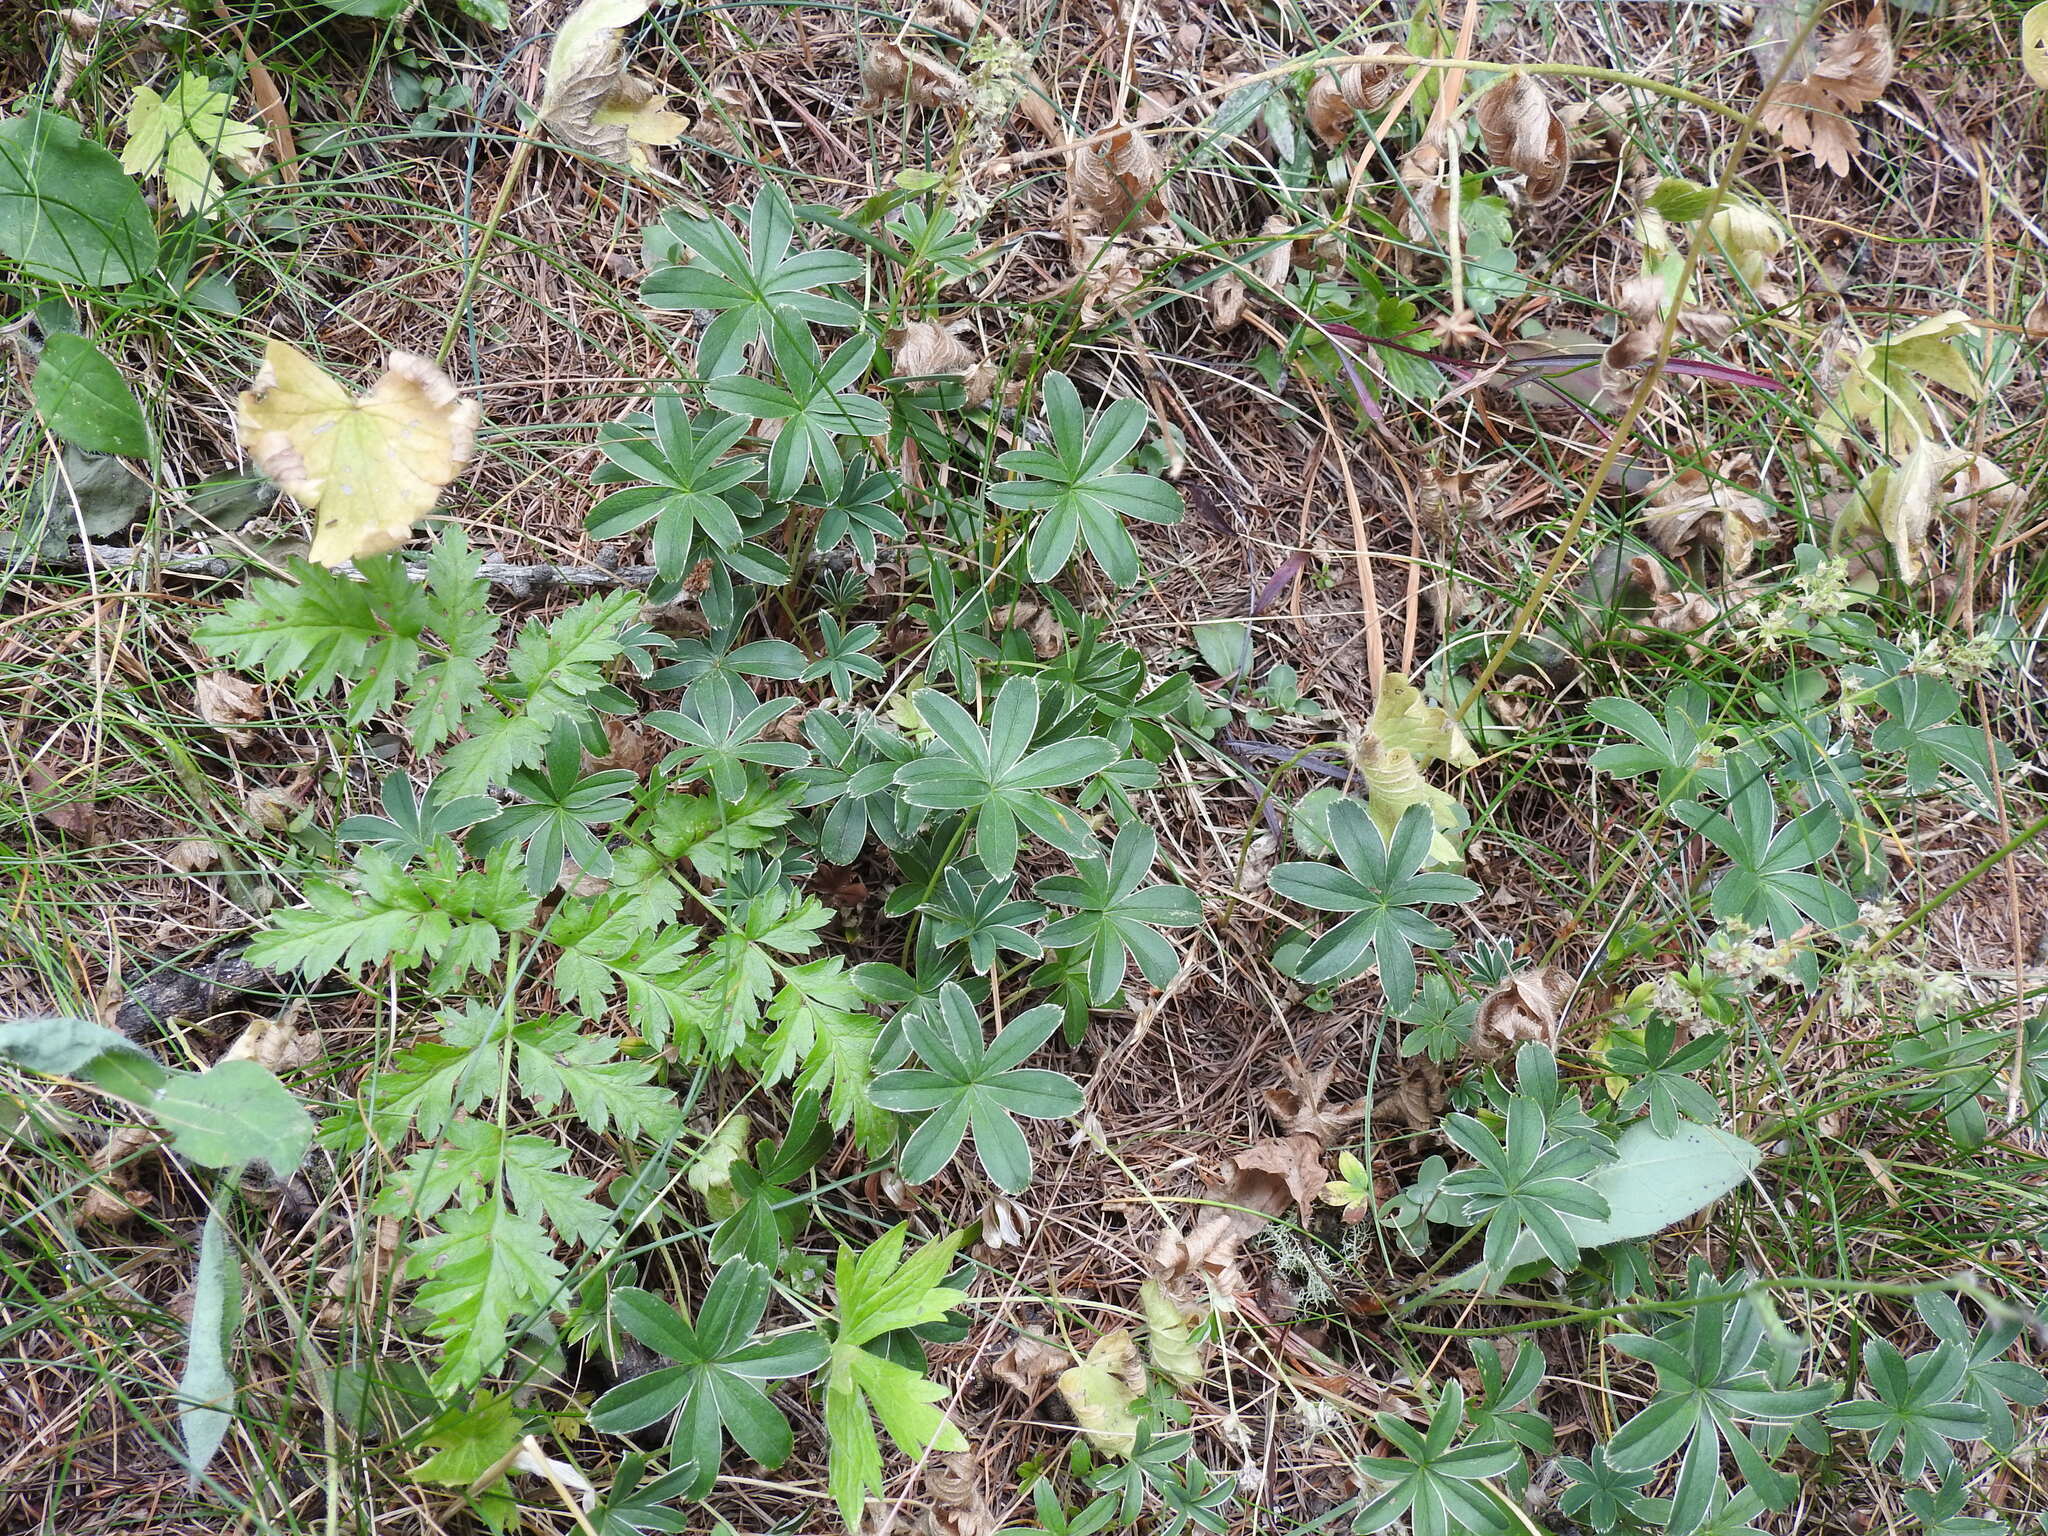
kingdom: Plantae
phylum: Tracheophyta
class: Magnoliopsida
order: Rosales
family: Rosaceae
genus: Alchemilla
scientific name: Alchemilla alpigena
